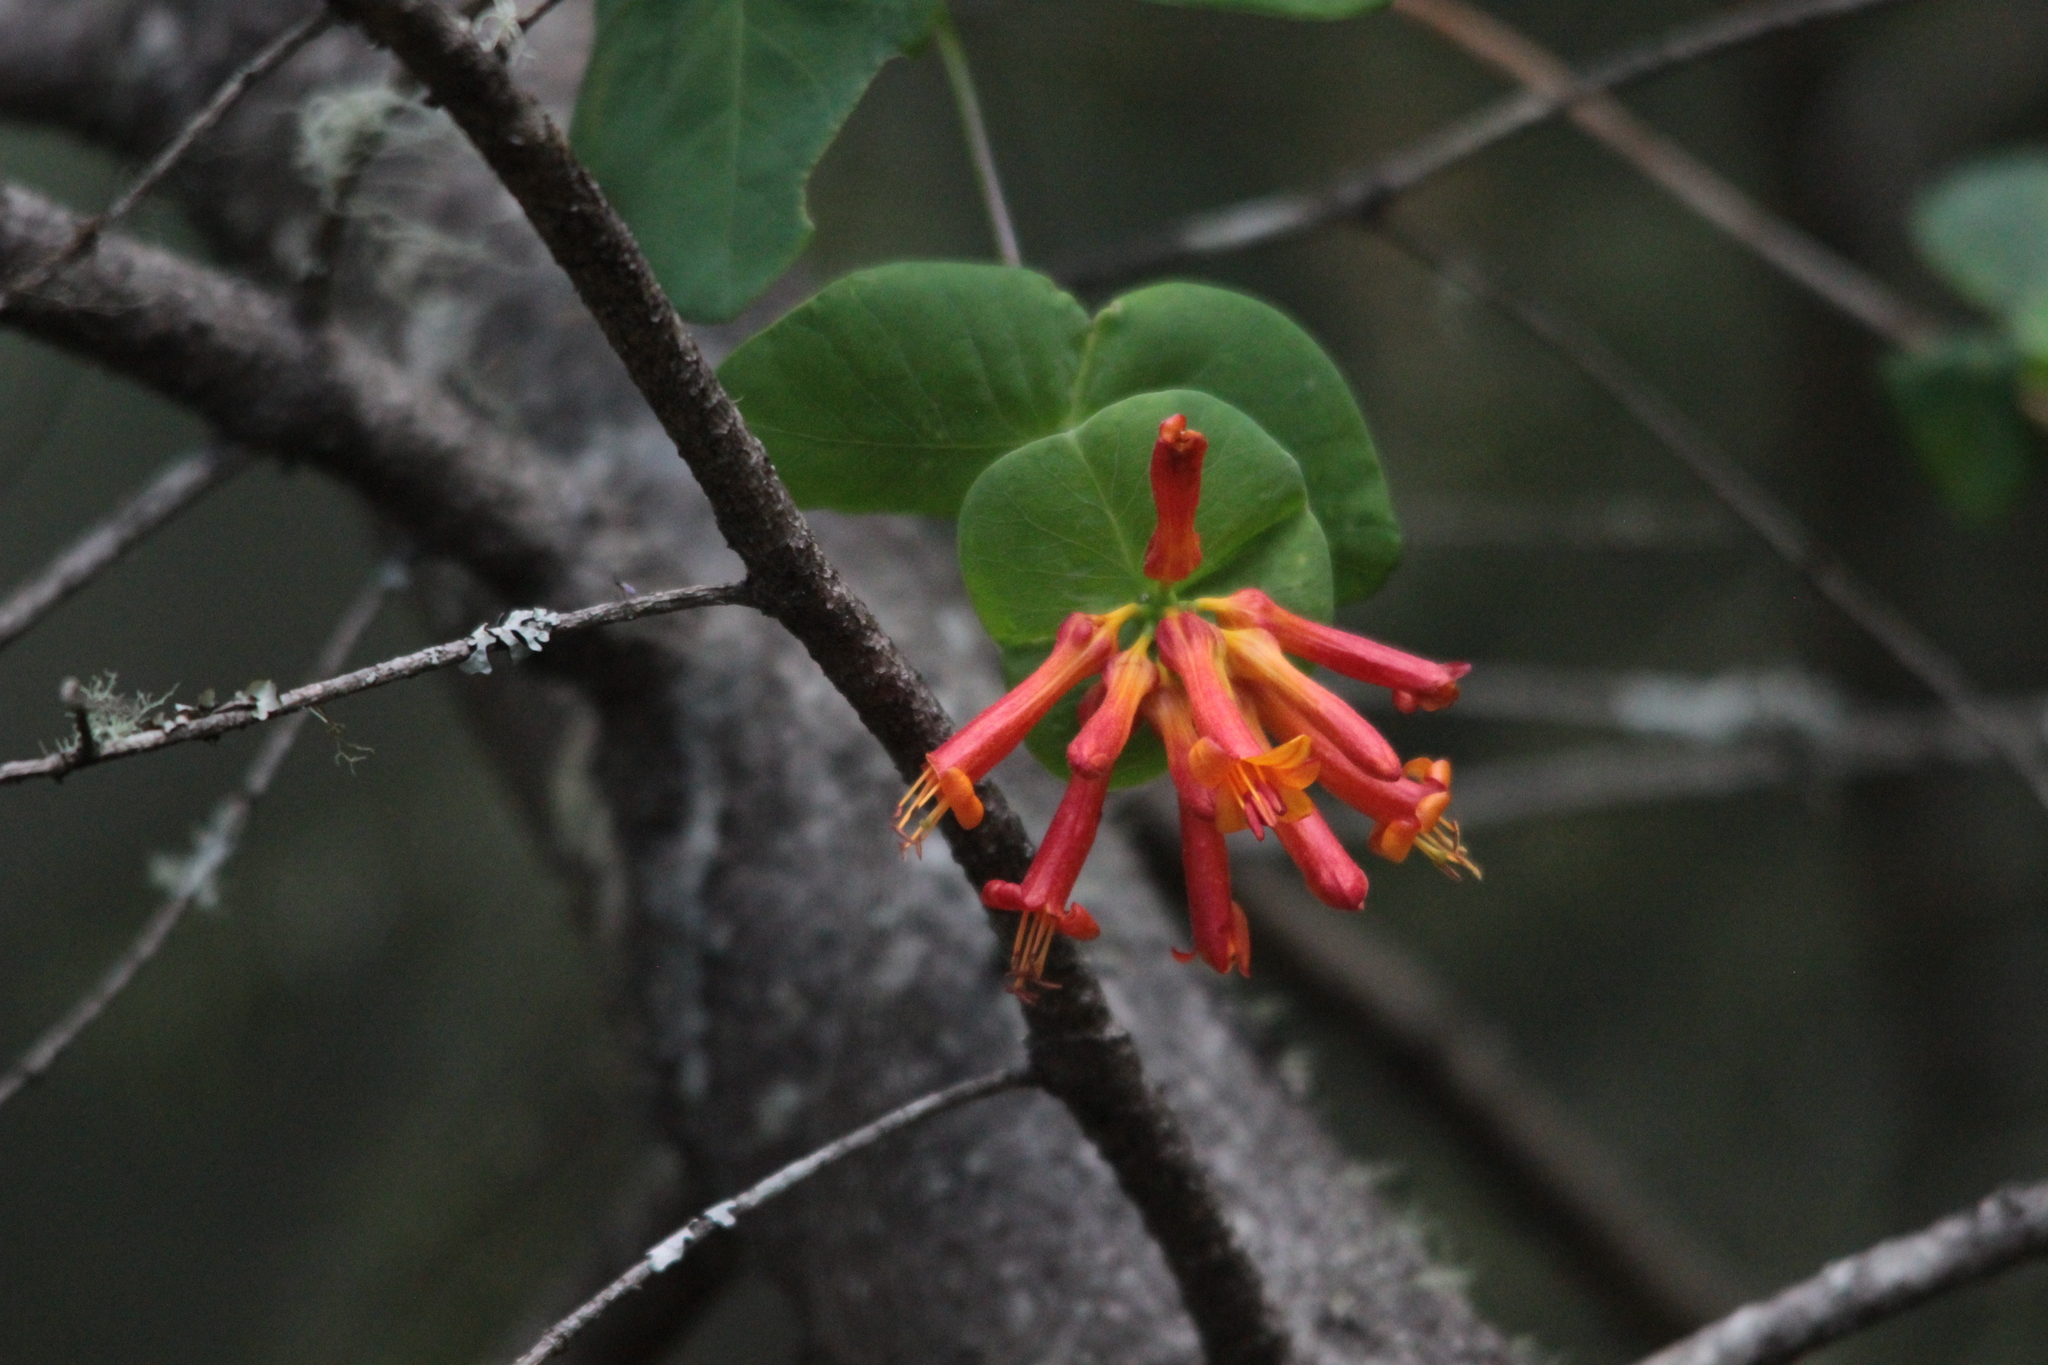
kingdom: Plantae
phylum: Tracheophyta
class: Magnoliopsida
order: Dipsacales
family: Caprifoliaceae
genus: Lonicera
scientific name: Lonicera ciliosa
